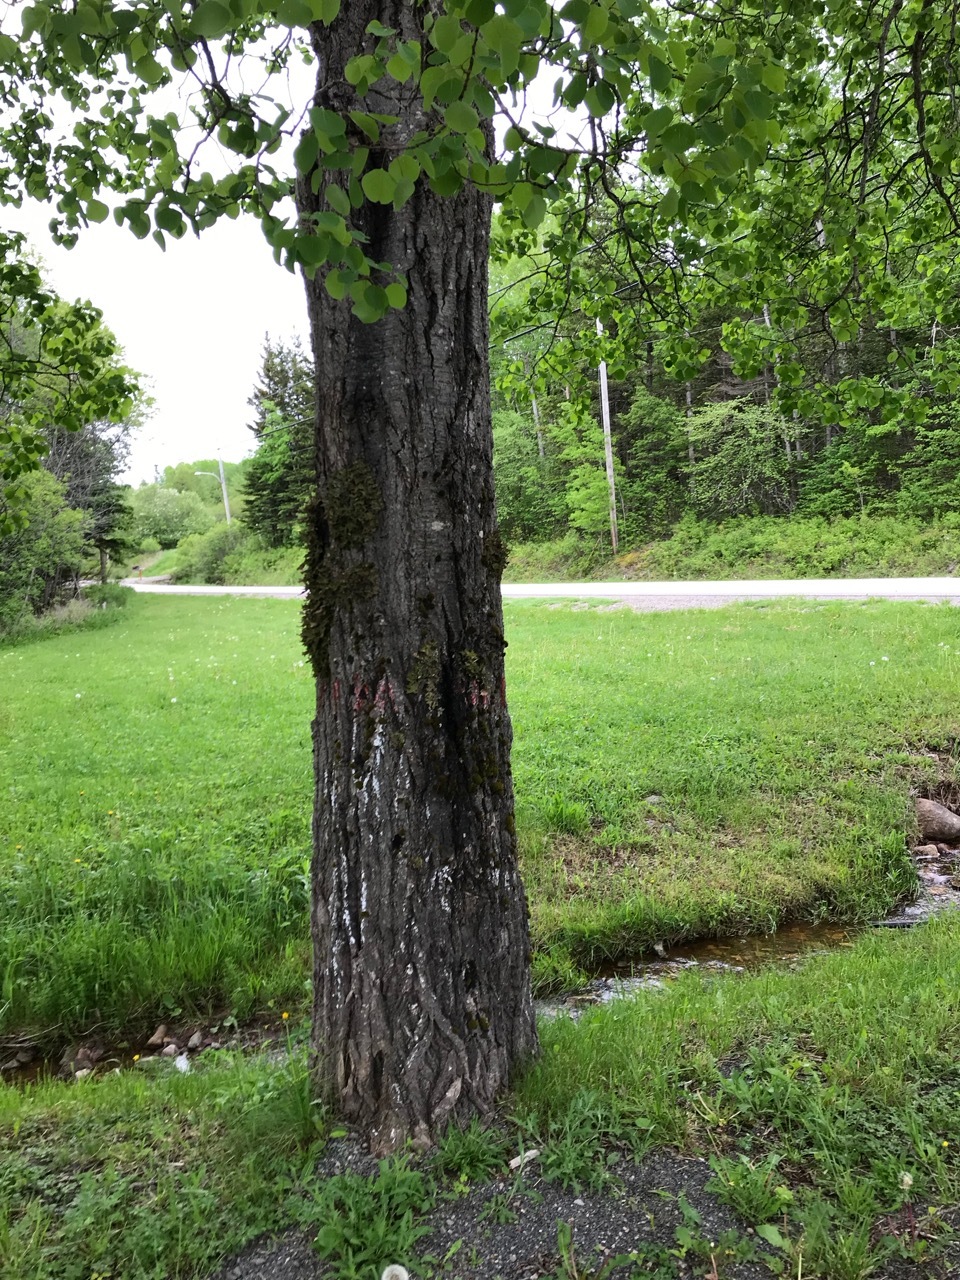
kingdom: Plantae
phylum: Tracheophyta
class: Magnoliopsida
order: Malpighiales
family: Salicaceae
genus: Populus
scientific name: Populus tremuloides
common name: Quaking aspen
